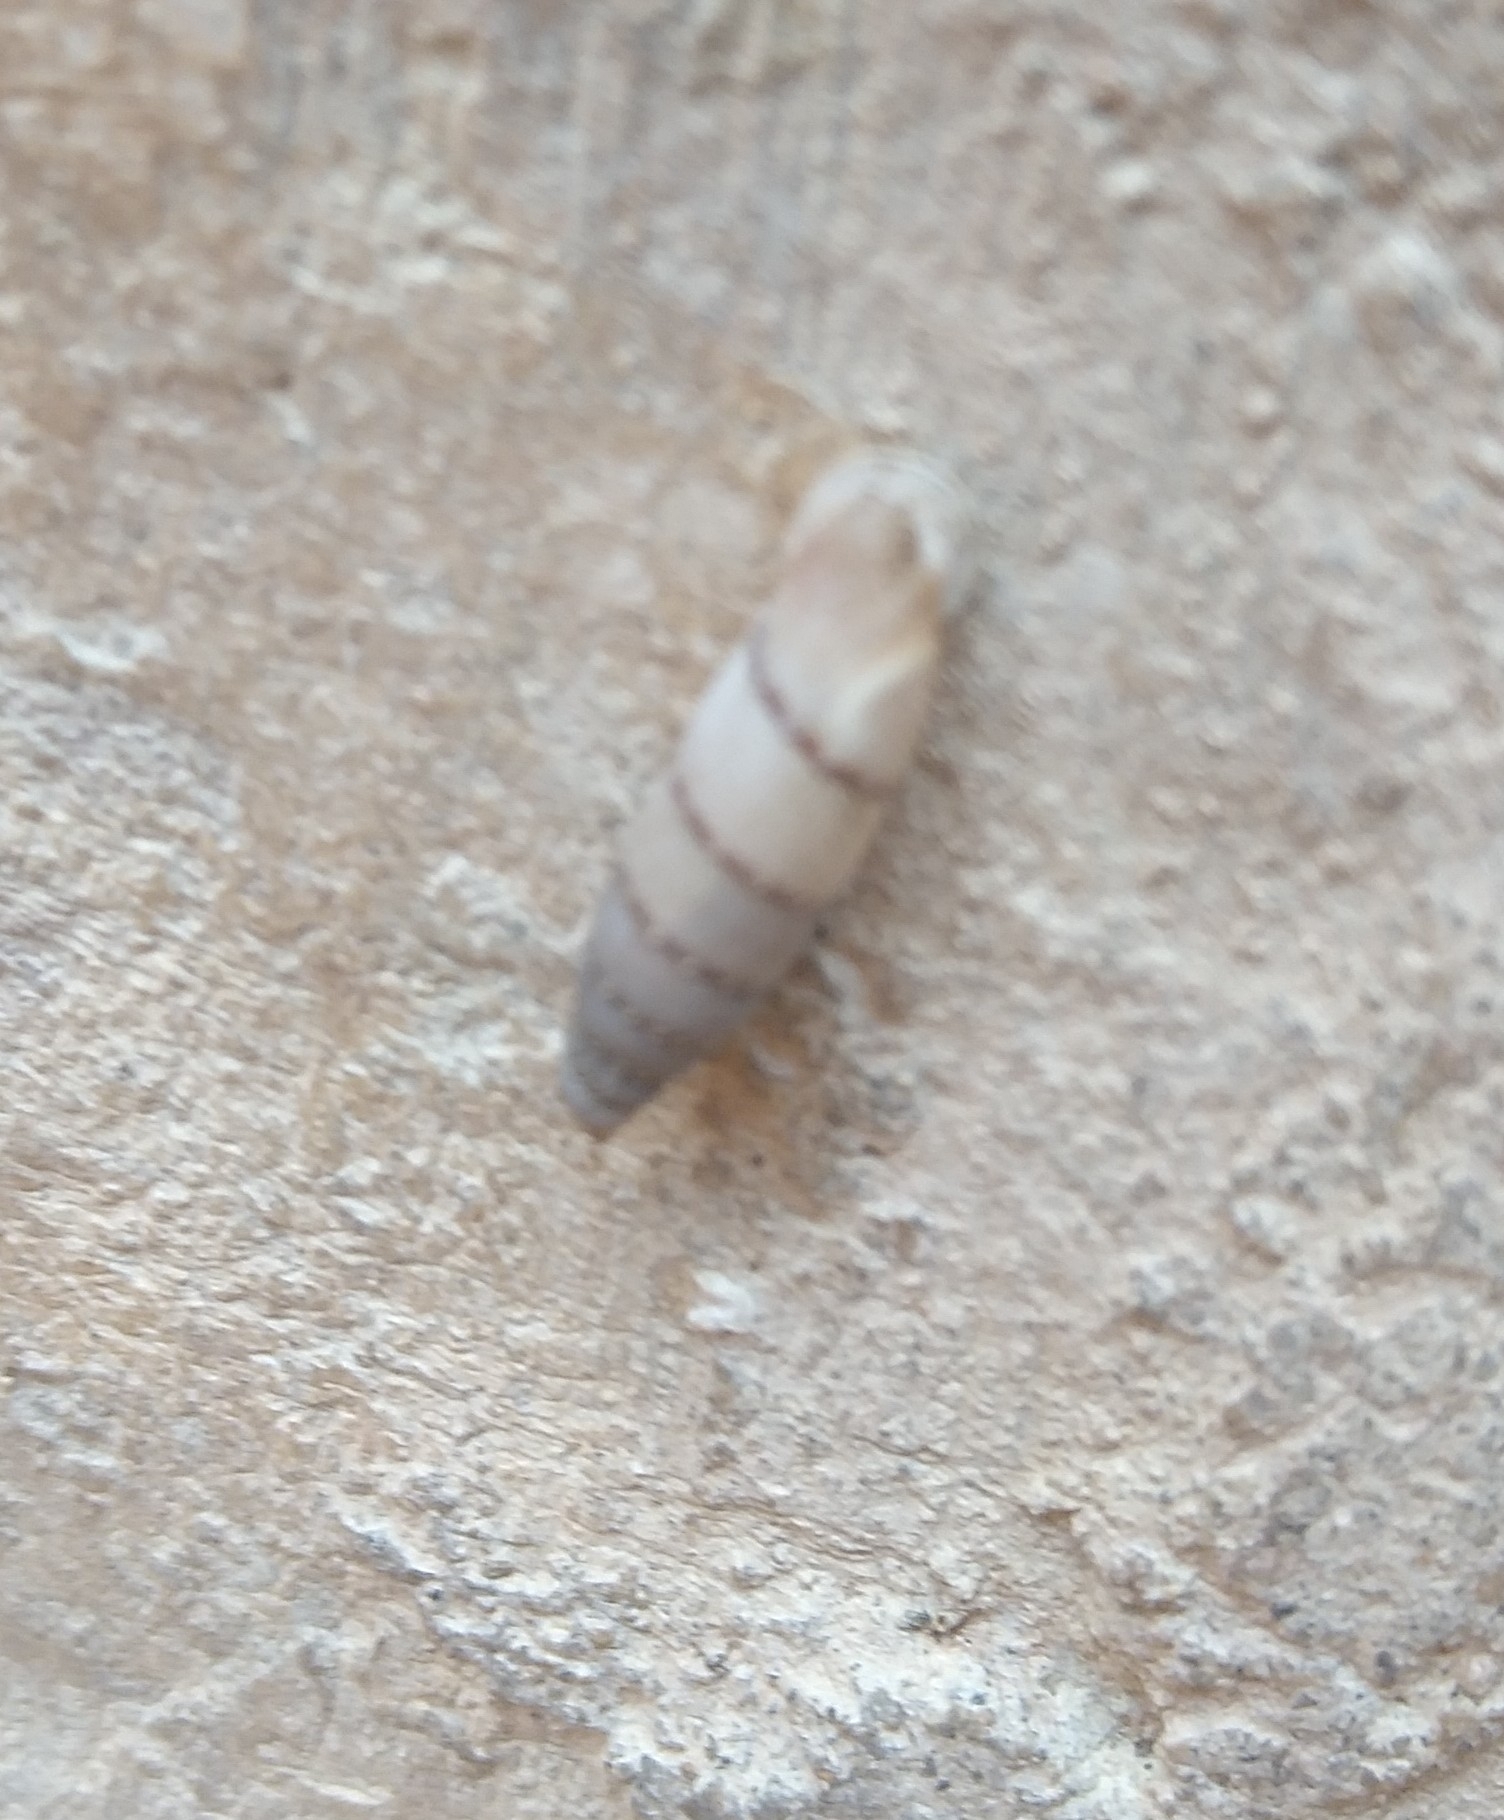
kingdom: Animalia
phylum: Mollusca
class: Gastropoda
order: Stylommatophora
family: Clausiliidae
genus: Papillifera
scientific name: Papillifera papillaris
